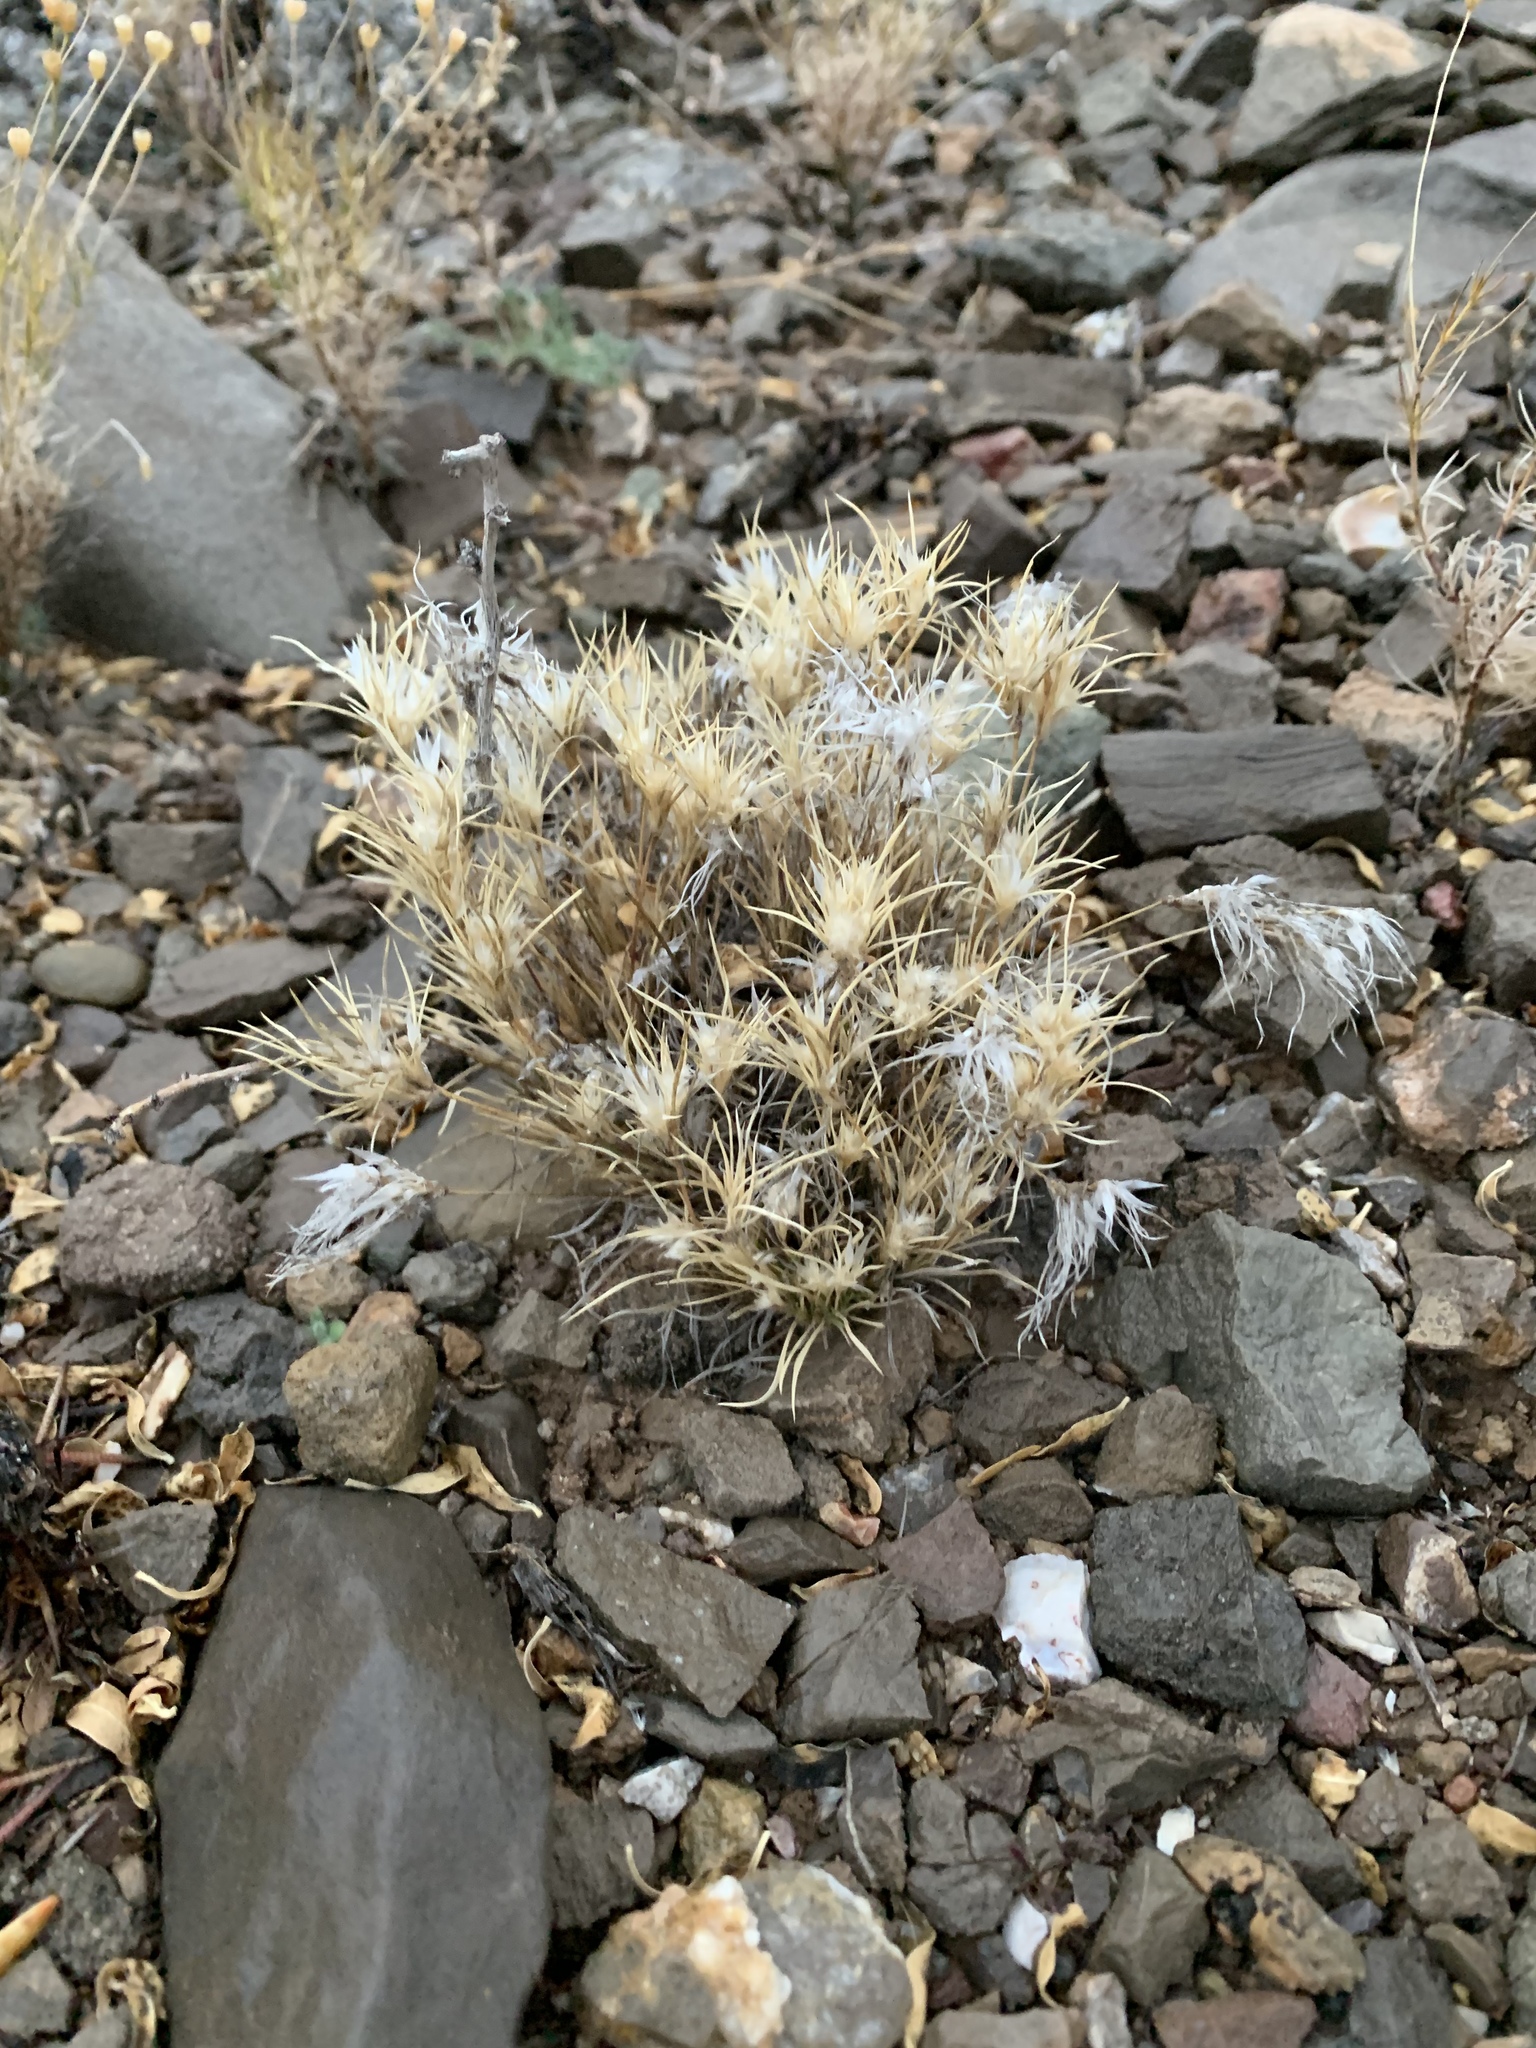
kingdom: Plantae
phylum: Tracheophyta
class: Liliopsida
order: Poales
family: Poaceae
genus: Dasyochloa
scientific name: Dasyochloa pulchella
